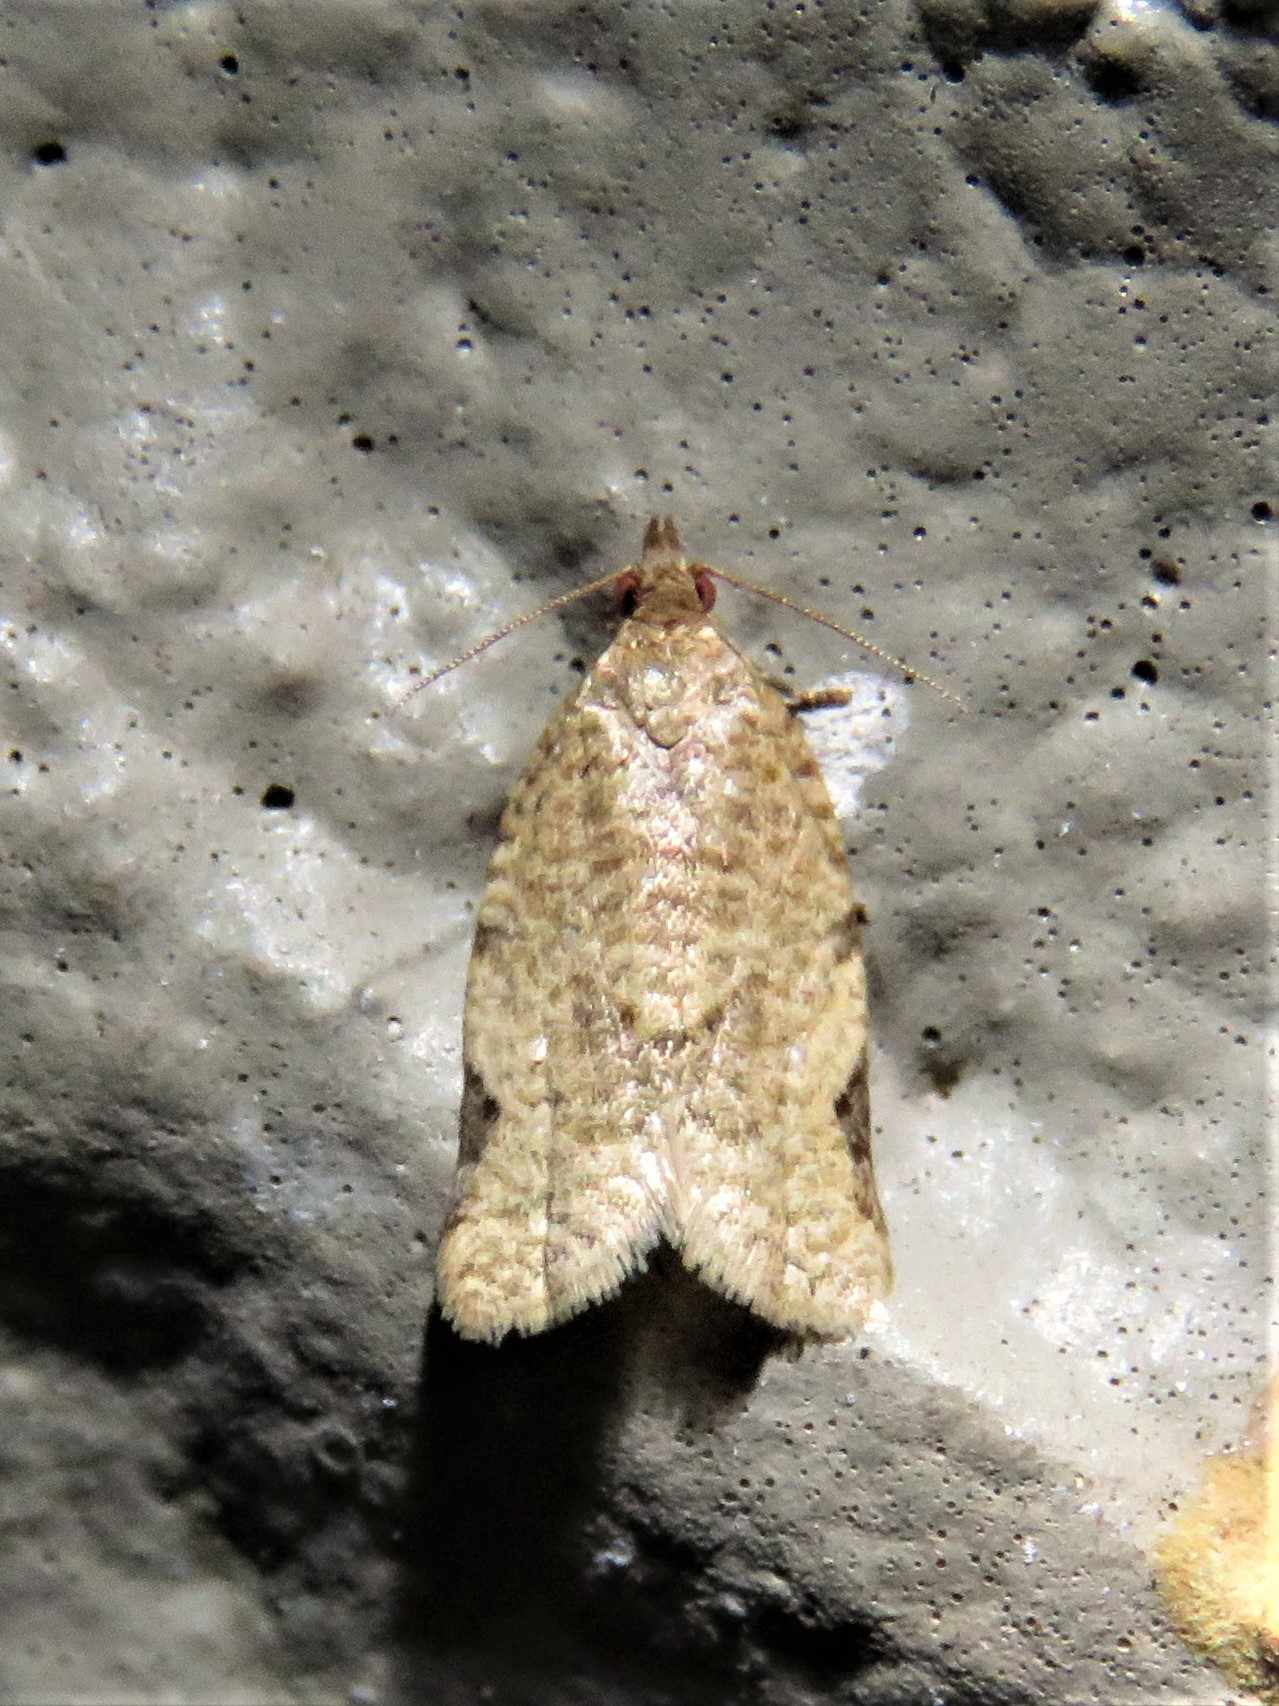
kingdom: Animalia
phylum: Arthropoda
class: Insecta
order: Lepidoptera
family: Tortricidae
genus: Clepsis
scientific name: Clepsis virescana
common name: Greenish apple moth
